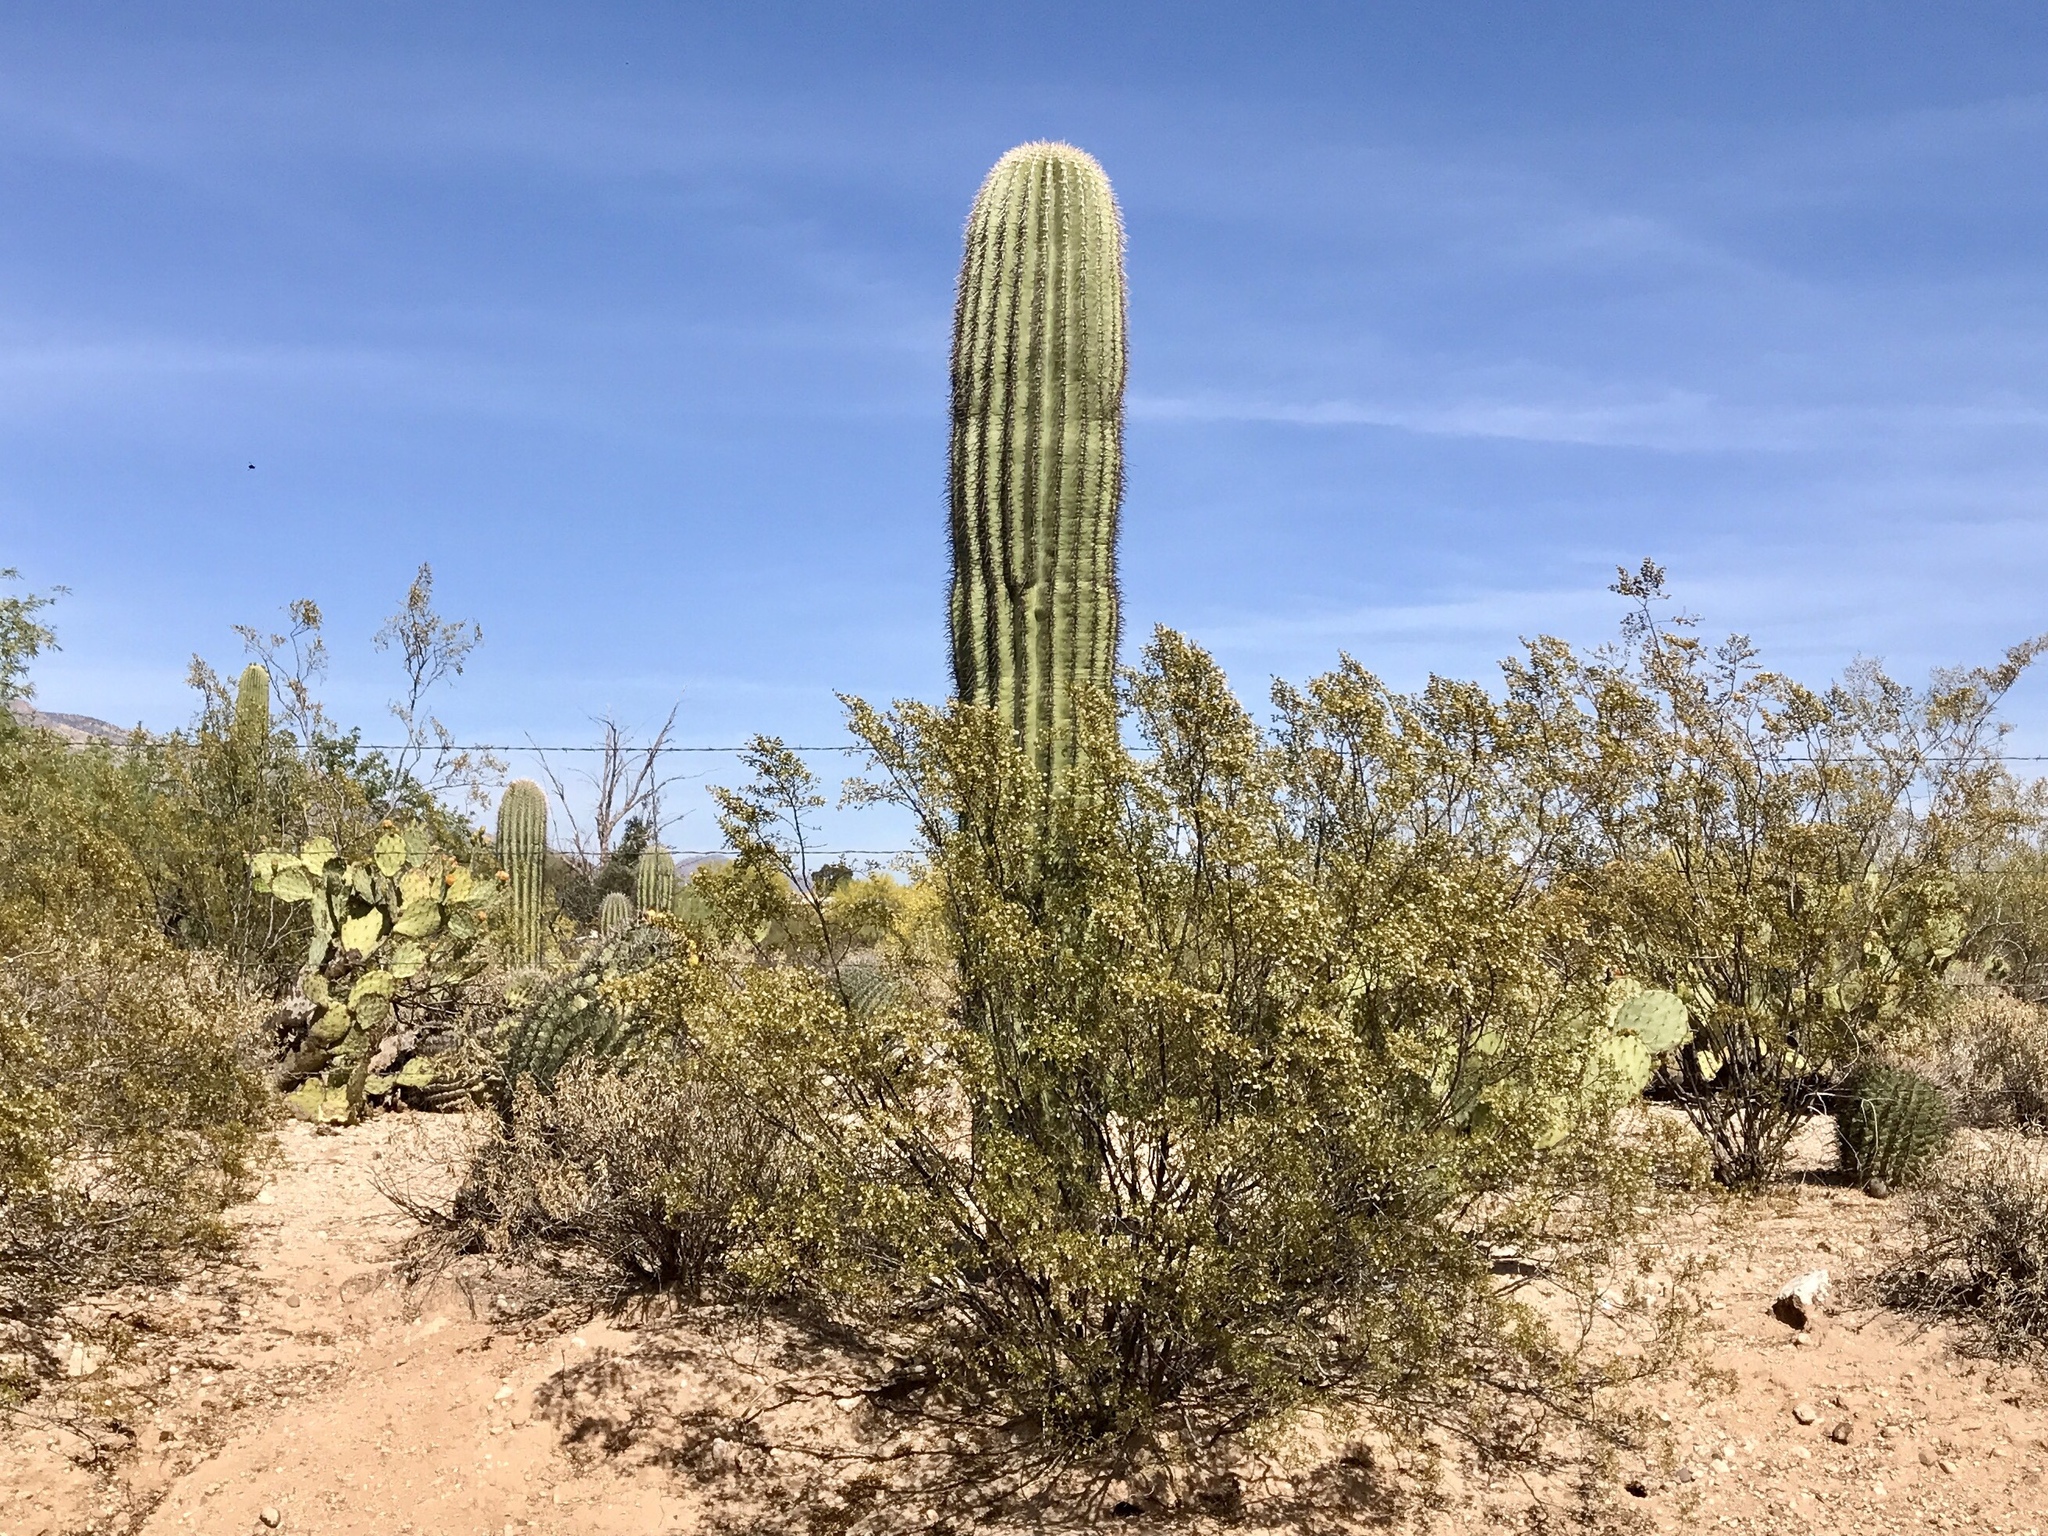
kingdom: Plantae
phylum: Tracheophyta
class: Magnoliopsida
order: Zygophyllales
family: Zygophyllaceae
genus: Larrea
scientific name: Larrea tridentata
